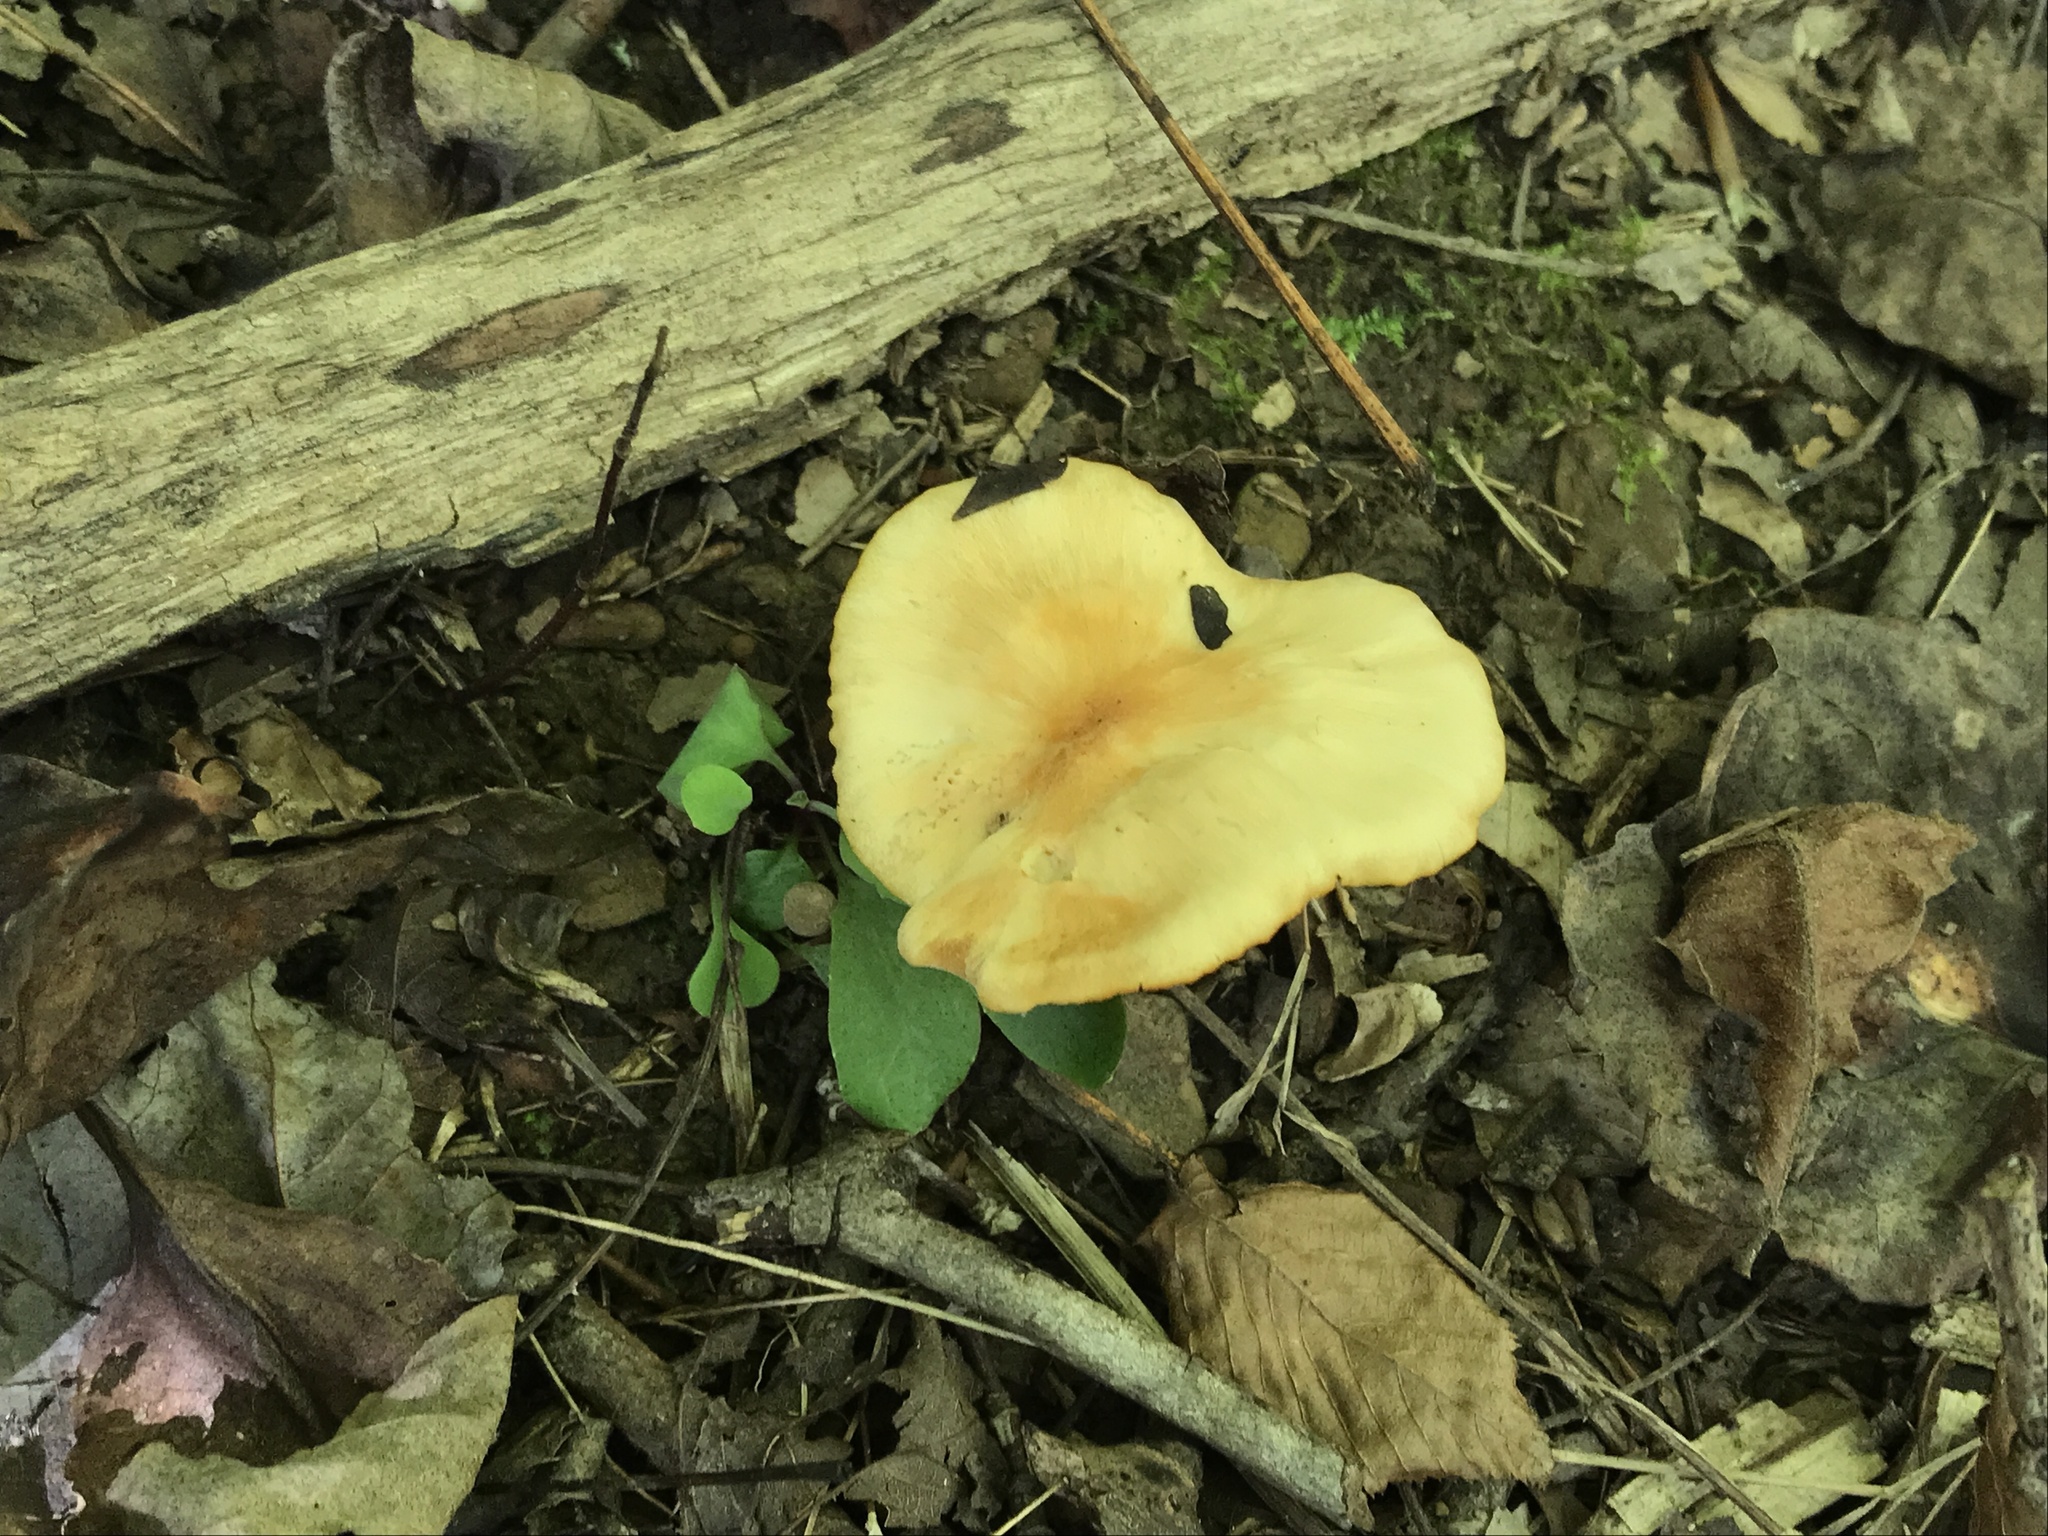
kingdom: Fungi
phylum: Basidiomycota
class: Agaricomycetes
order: Agaricales
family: Hygrophoraceae
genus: Cuphophyllus
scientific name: Cuphophyllus pratensis
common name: Meadow waxcap
